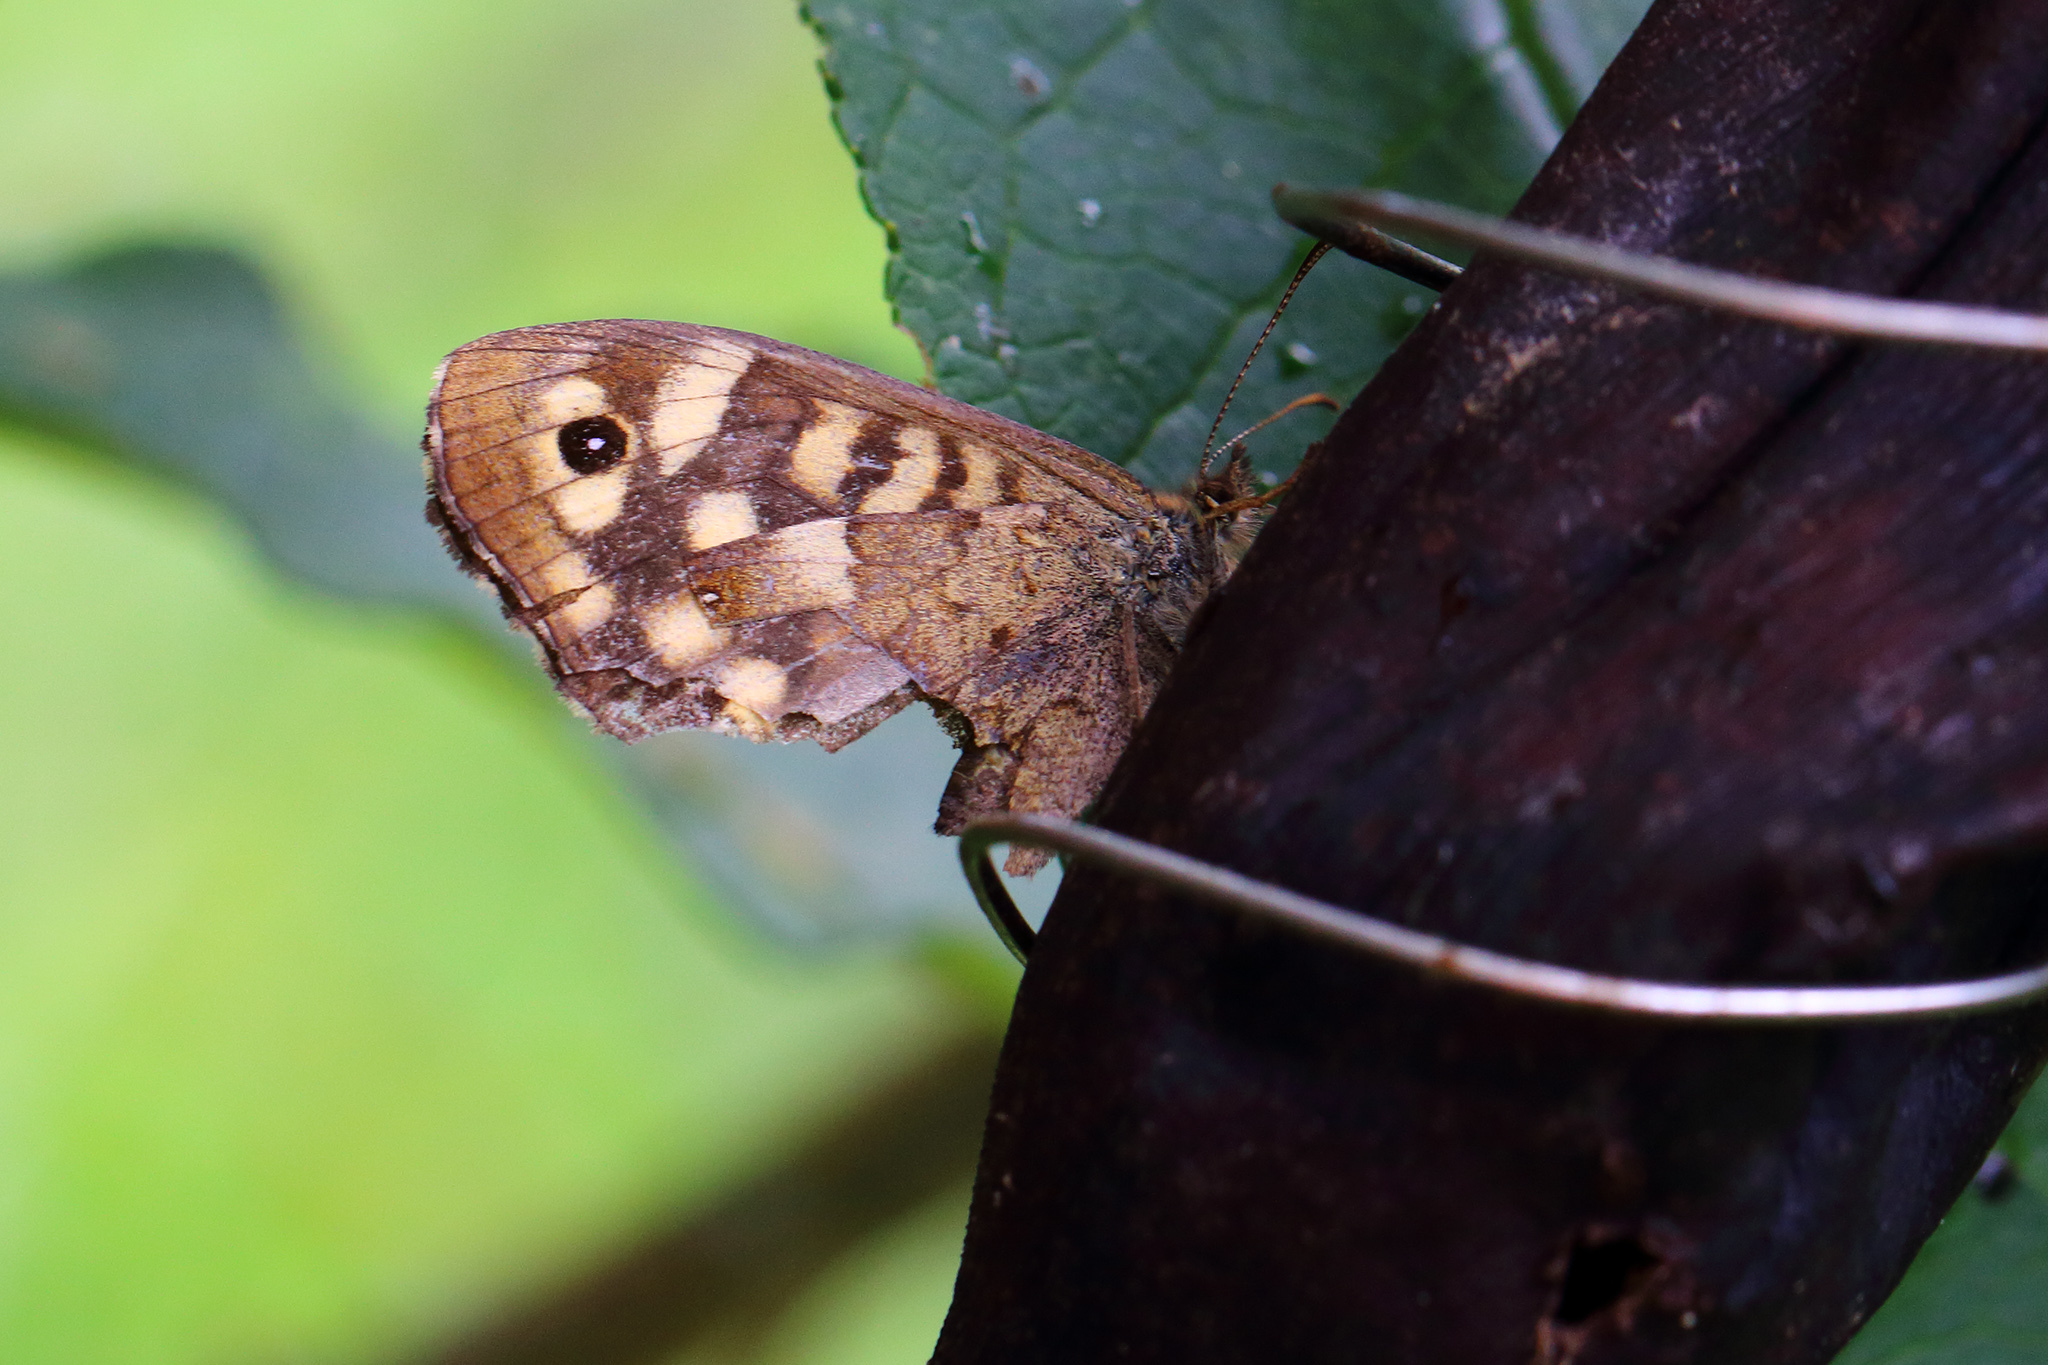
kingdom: Animalia
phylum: Arthropoda
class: Insecta
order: Lepidoptera
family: Nymphalidae
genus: Pararge
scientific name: Pararge aegeria
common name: Speckled wood
